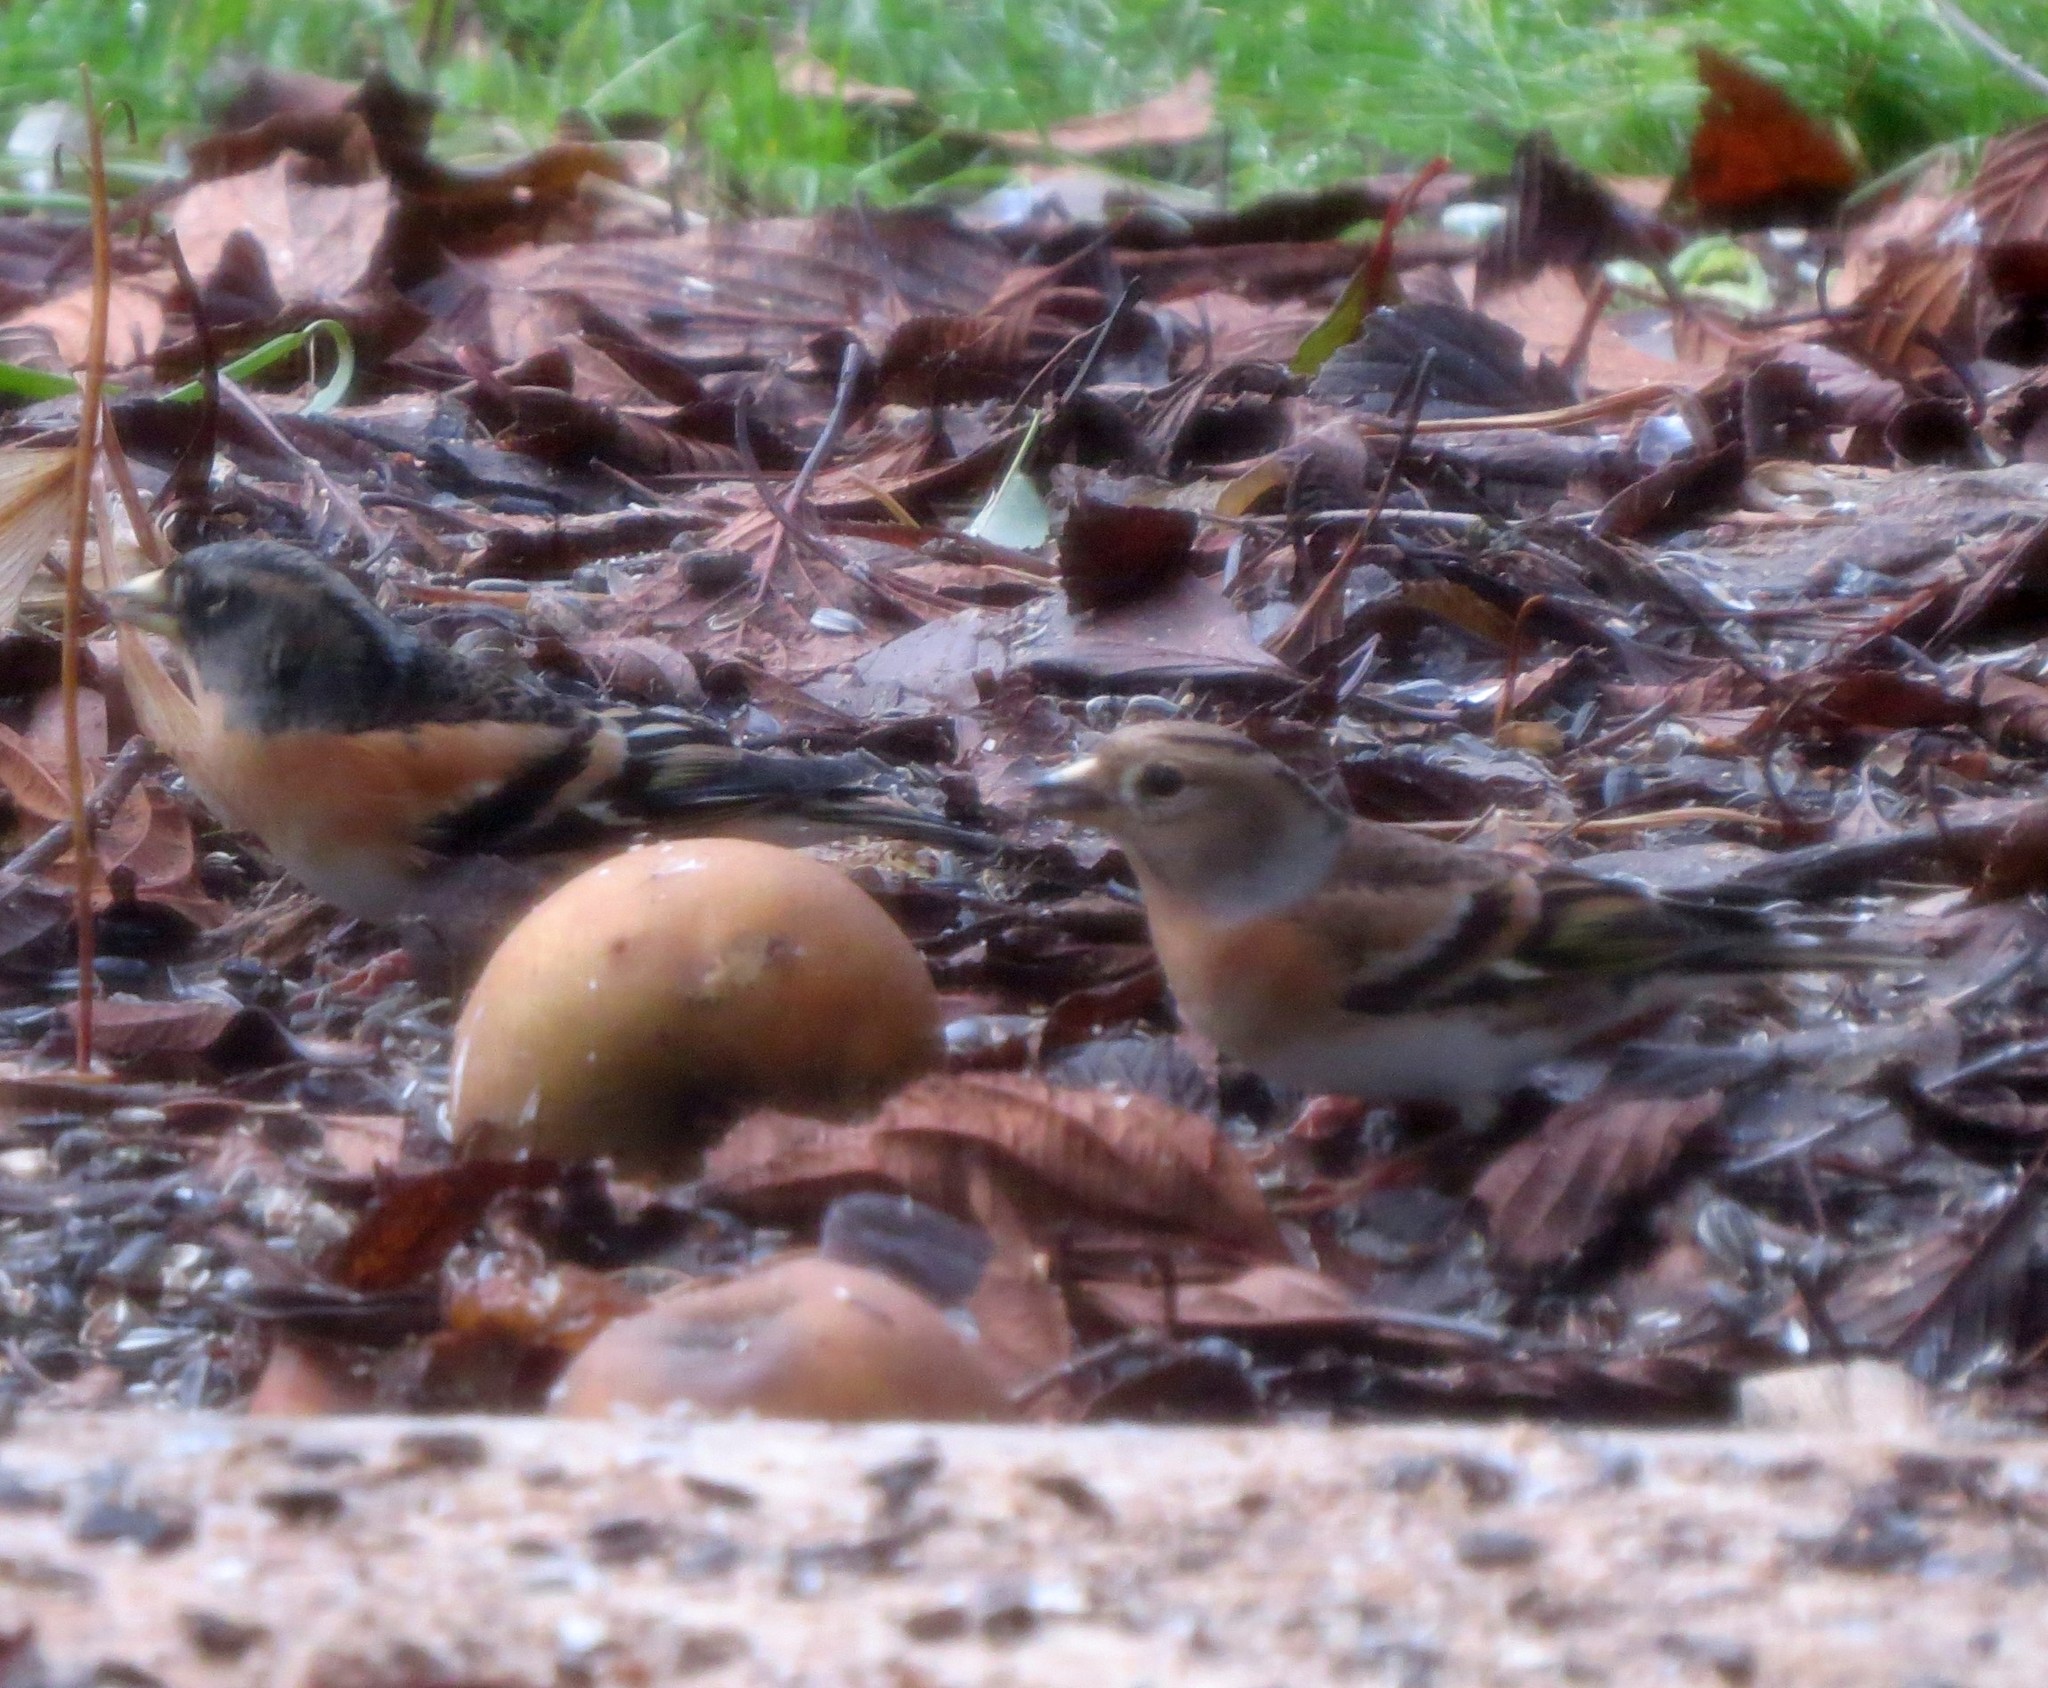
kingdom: Animalia
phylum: Chordata
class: Aves
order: Passeriformes
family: Fringillidae
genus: Fringilla
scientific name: Fringilla montifringilla
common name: Brambling
